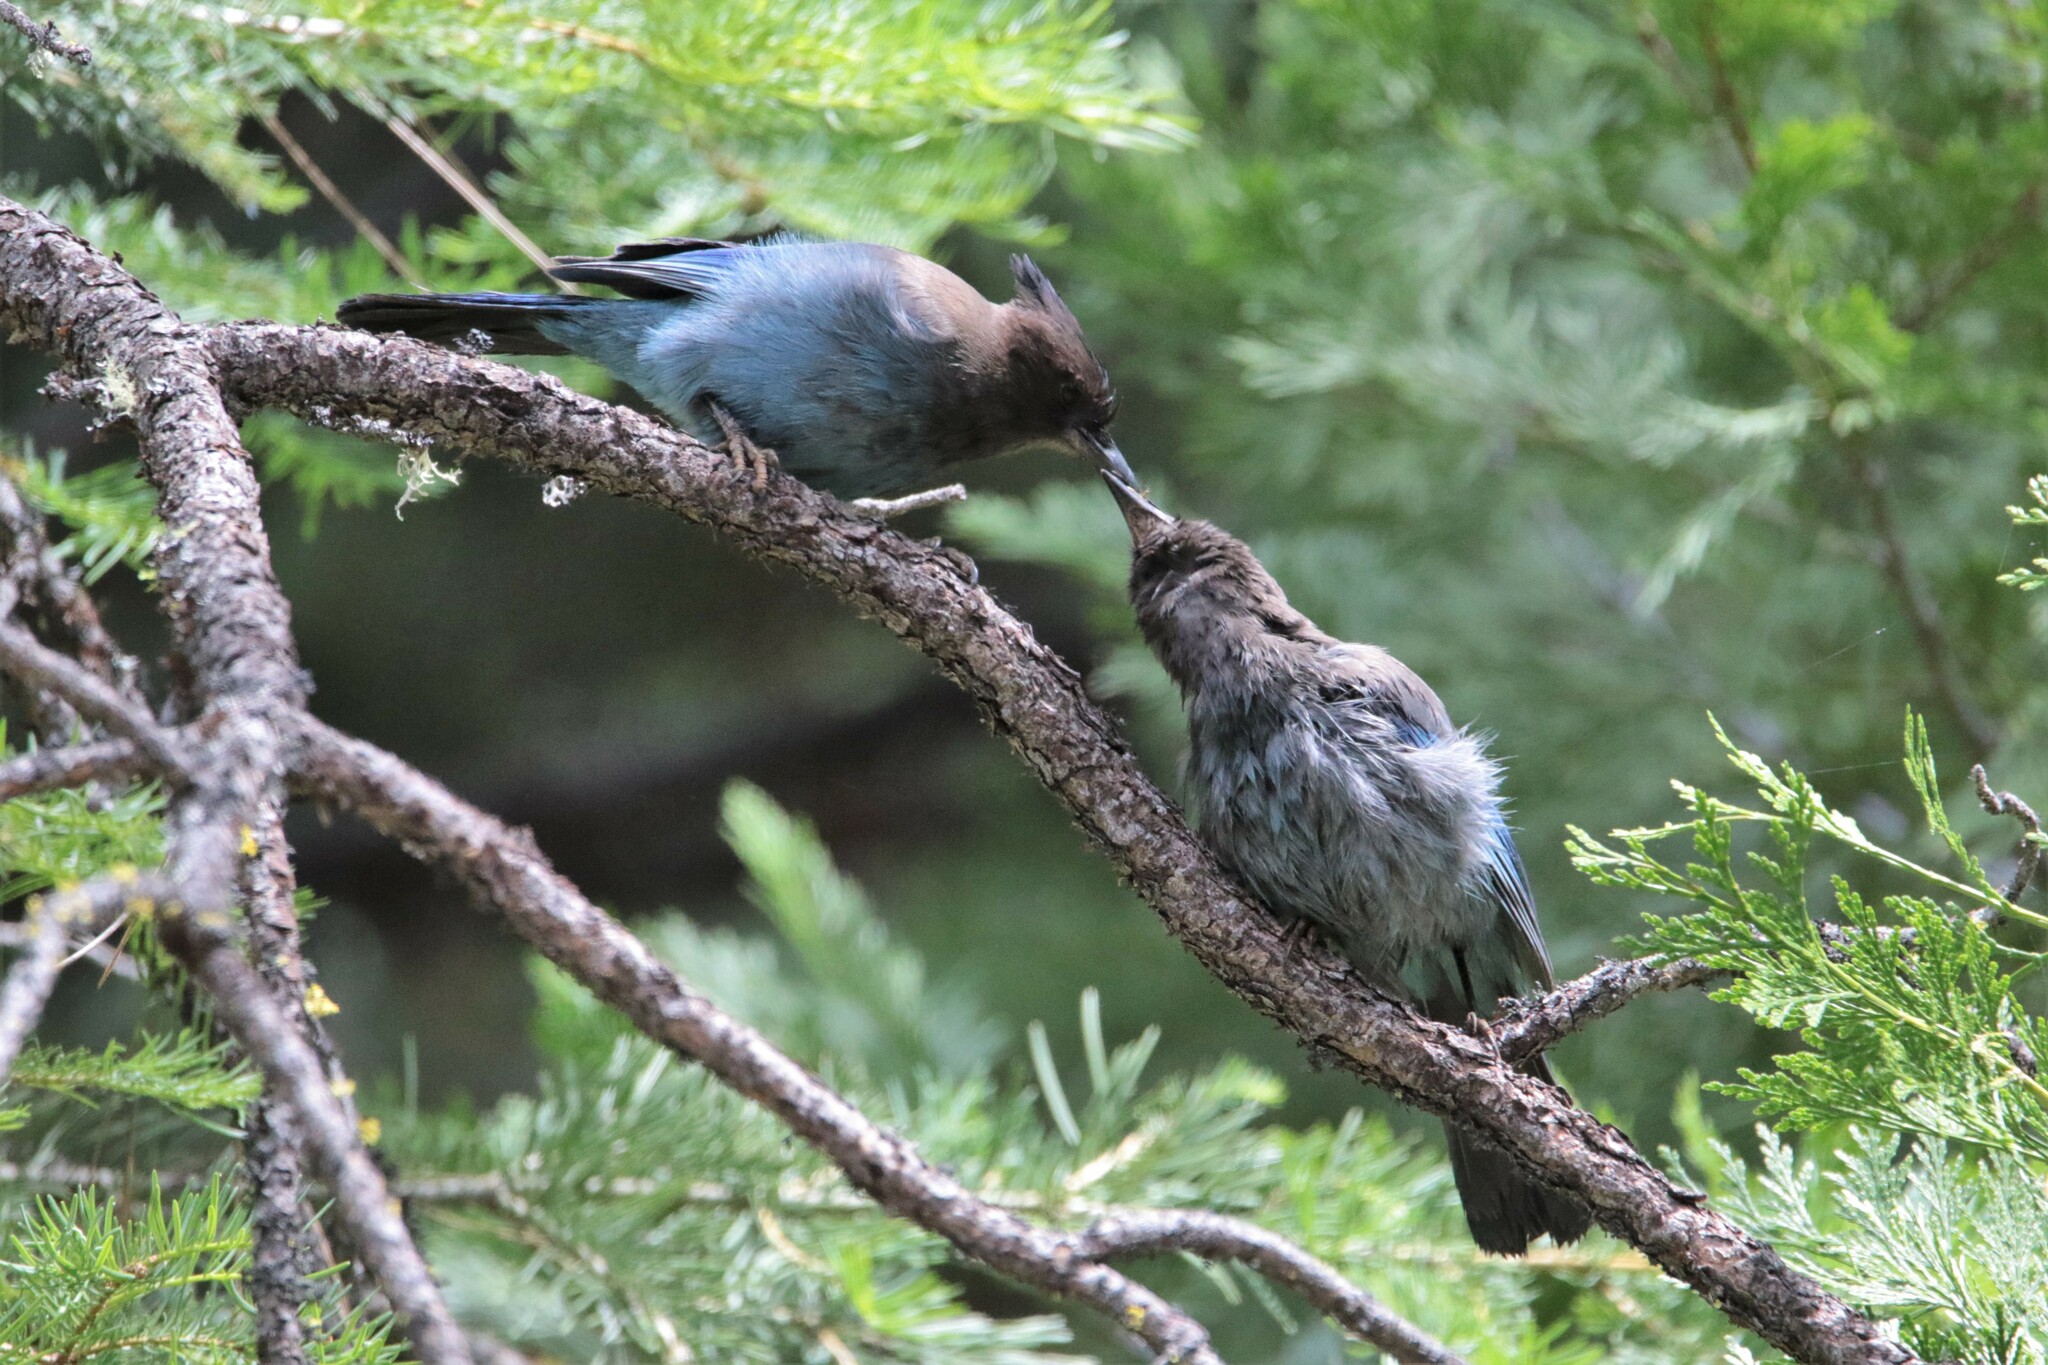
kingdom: Animalia
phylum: Chordata
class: Aves
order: Passeriformes
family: Corvidae
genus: Cyanocitta
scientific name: Cyanocitta stelleri
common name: Steller's jay
